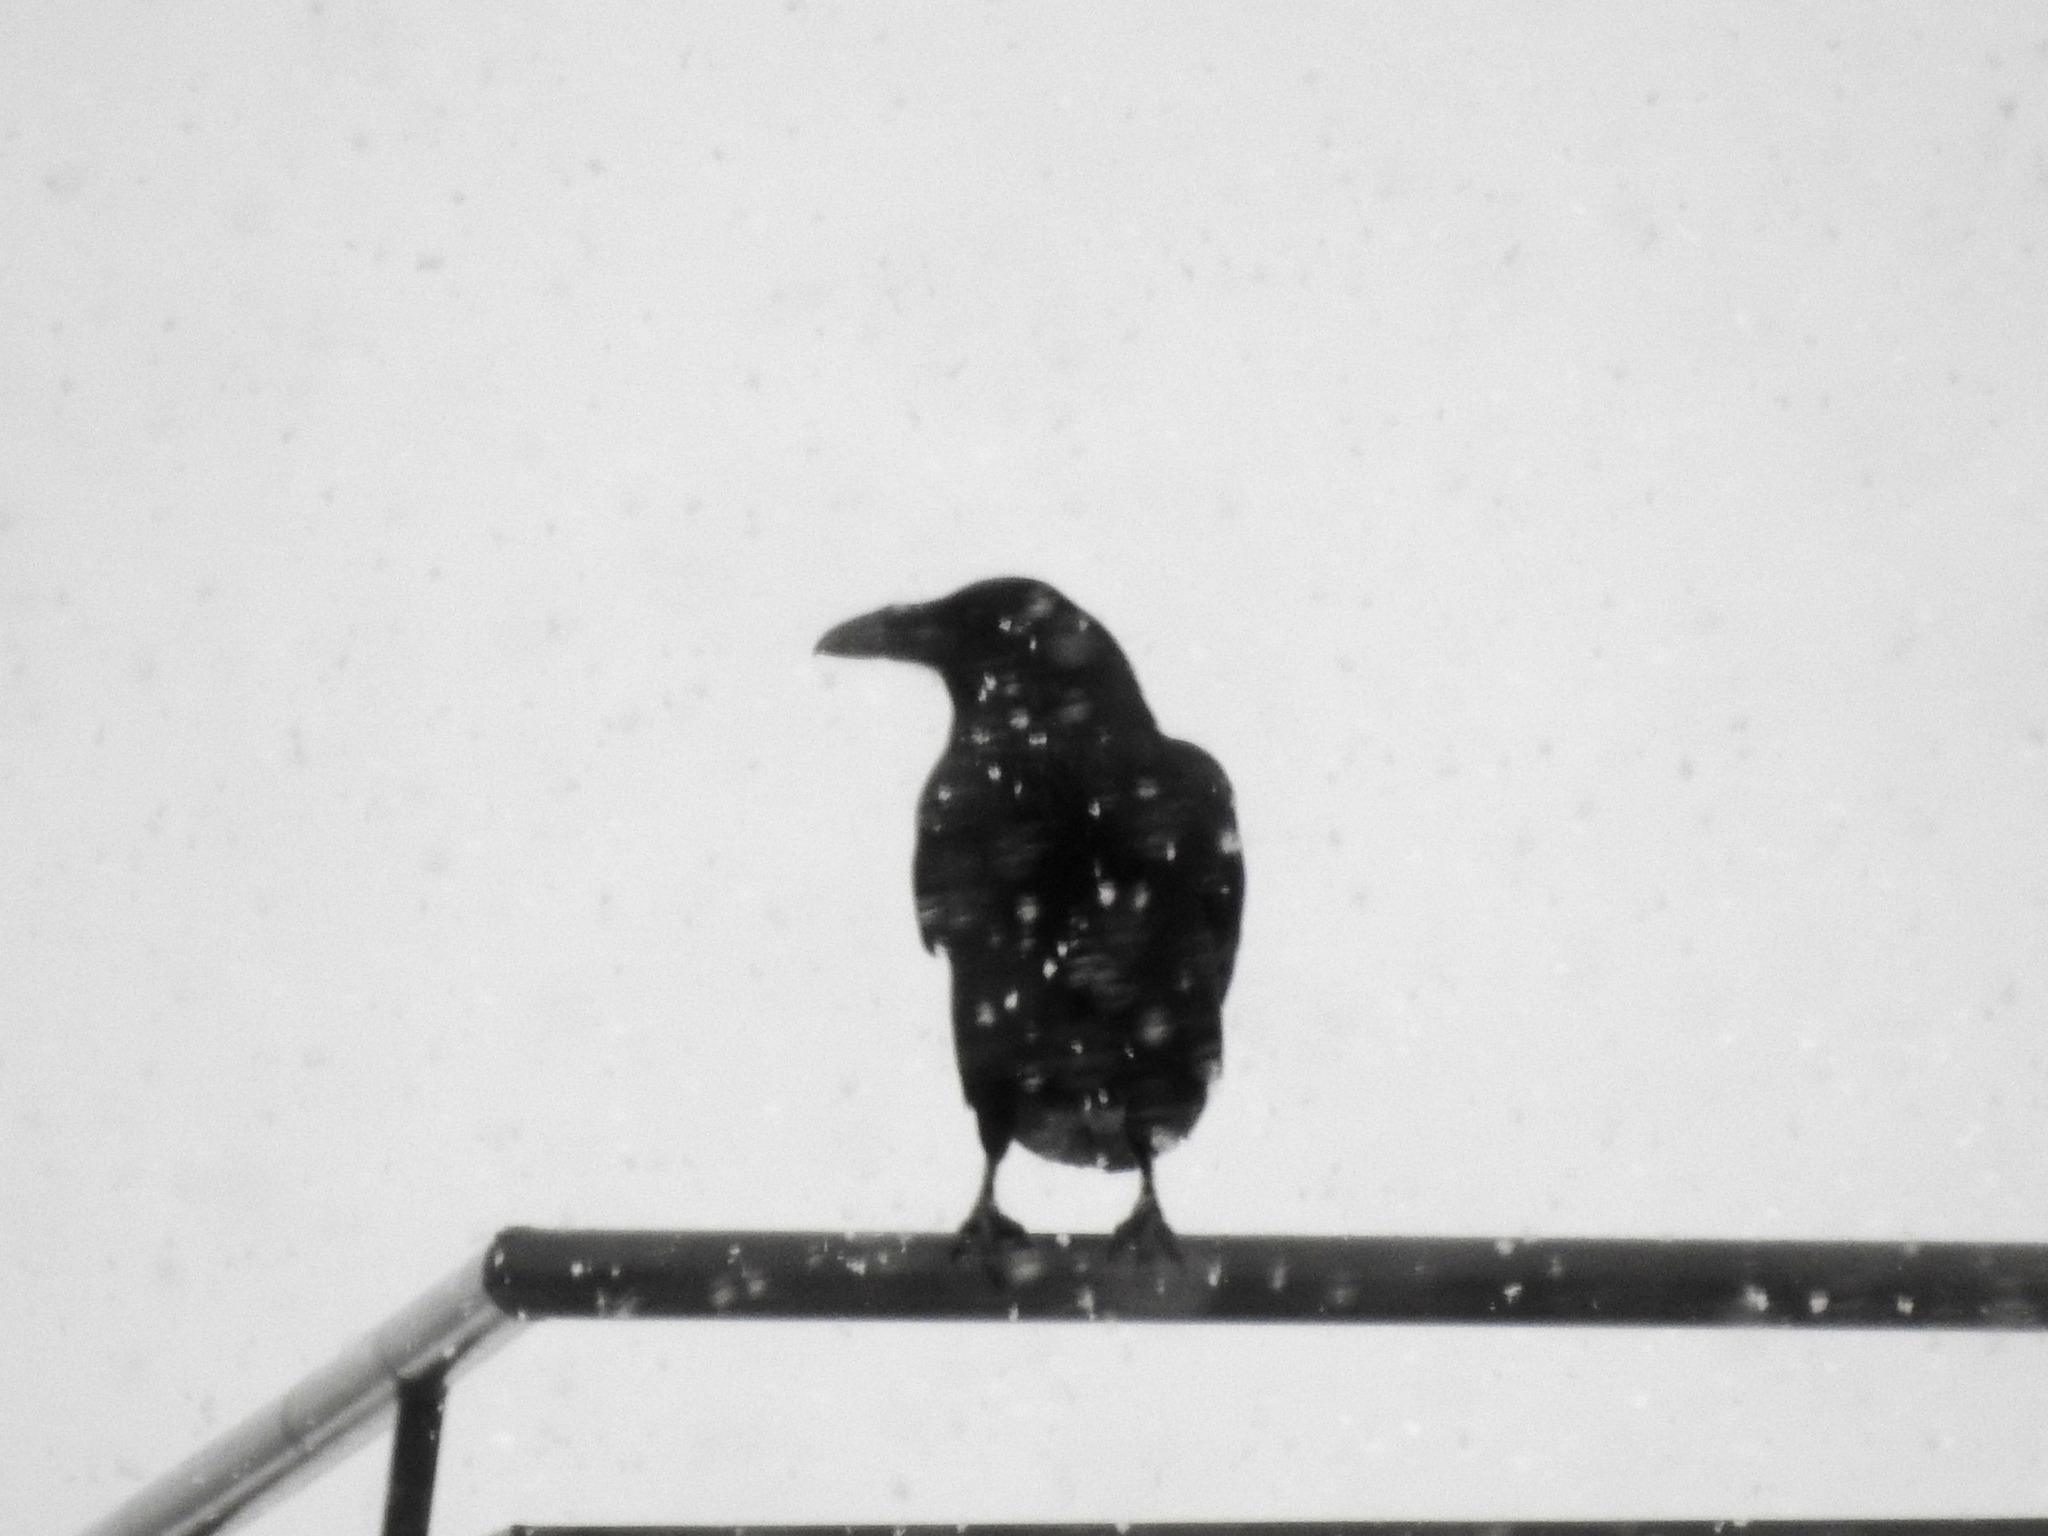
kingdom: Animalia
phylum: Chordata
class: Aves
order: Passeriformes
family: Corvidae
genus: Corvus
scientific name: Corvus corax
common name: Common raven
